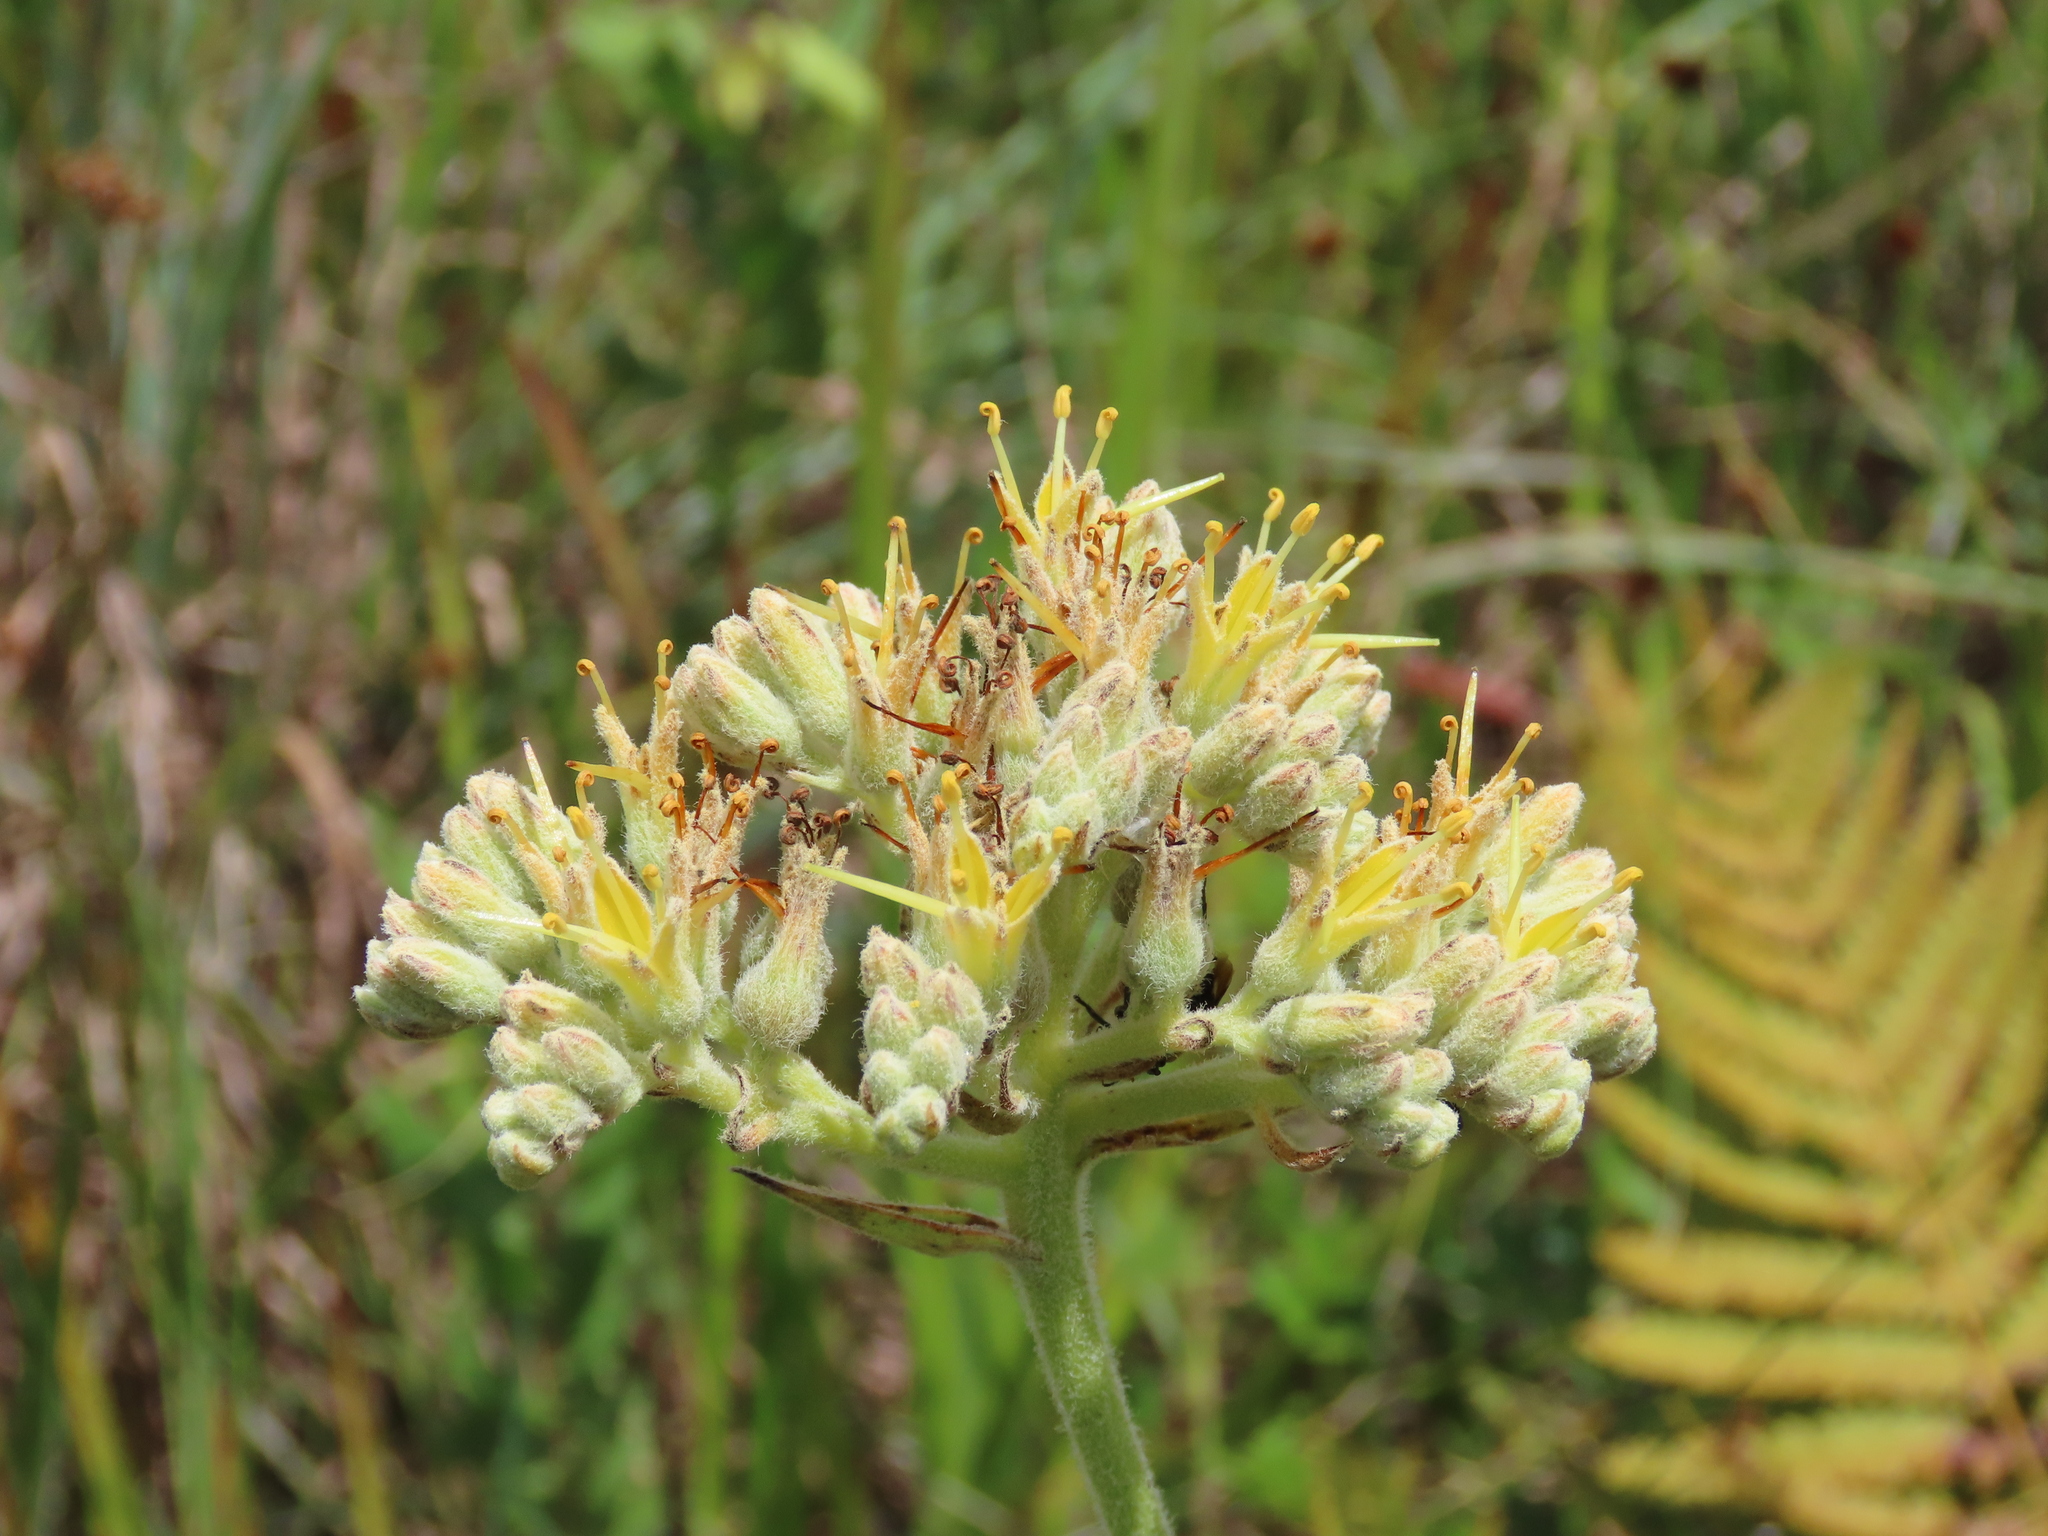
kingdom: Plantae
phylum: Tracheophyta
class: Liliopsida
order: Commelinales
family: Haemodoraceae
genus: Lachnanthes
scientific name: Lachnanthes caroliana
